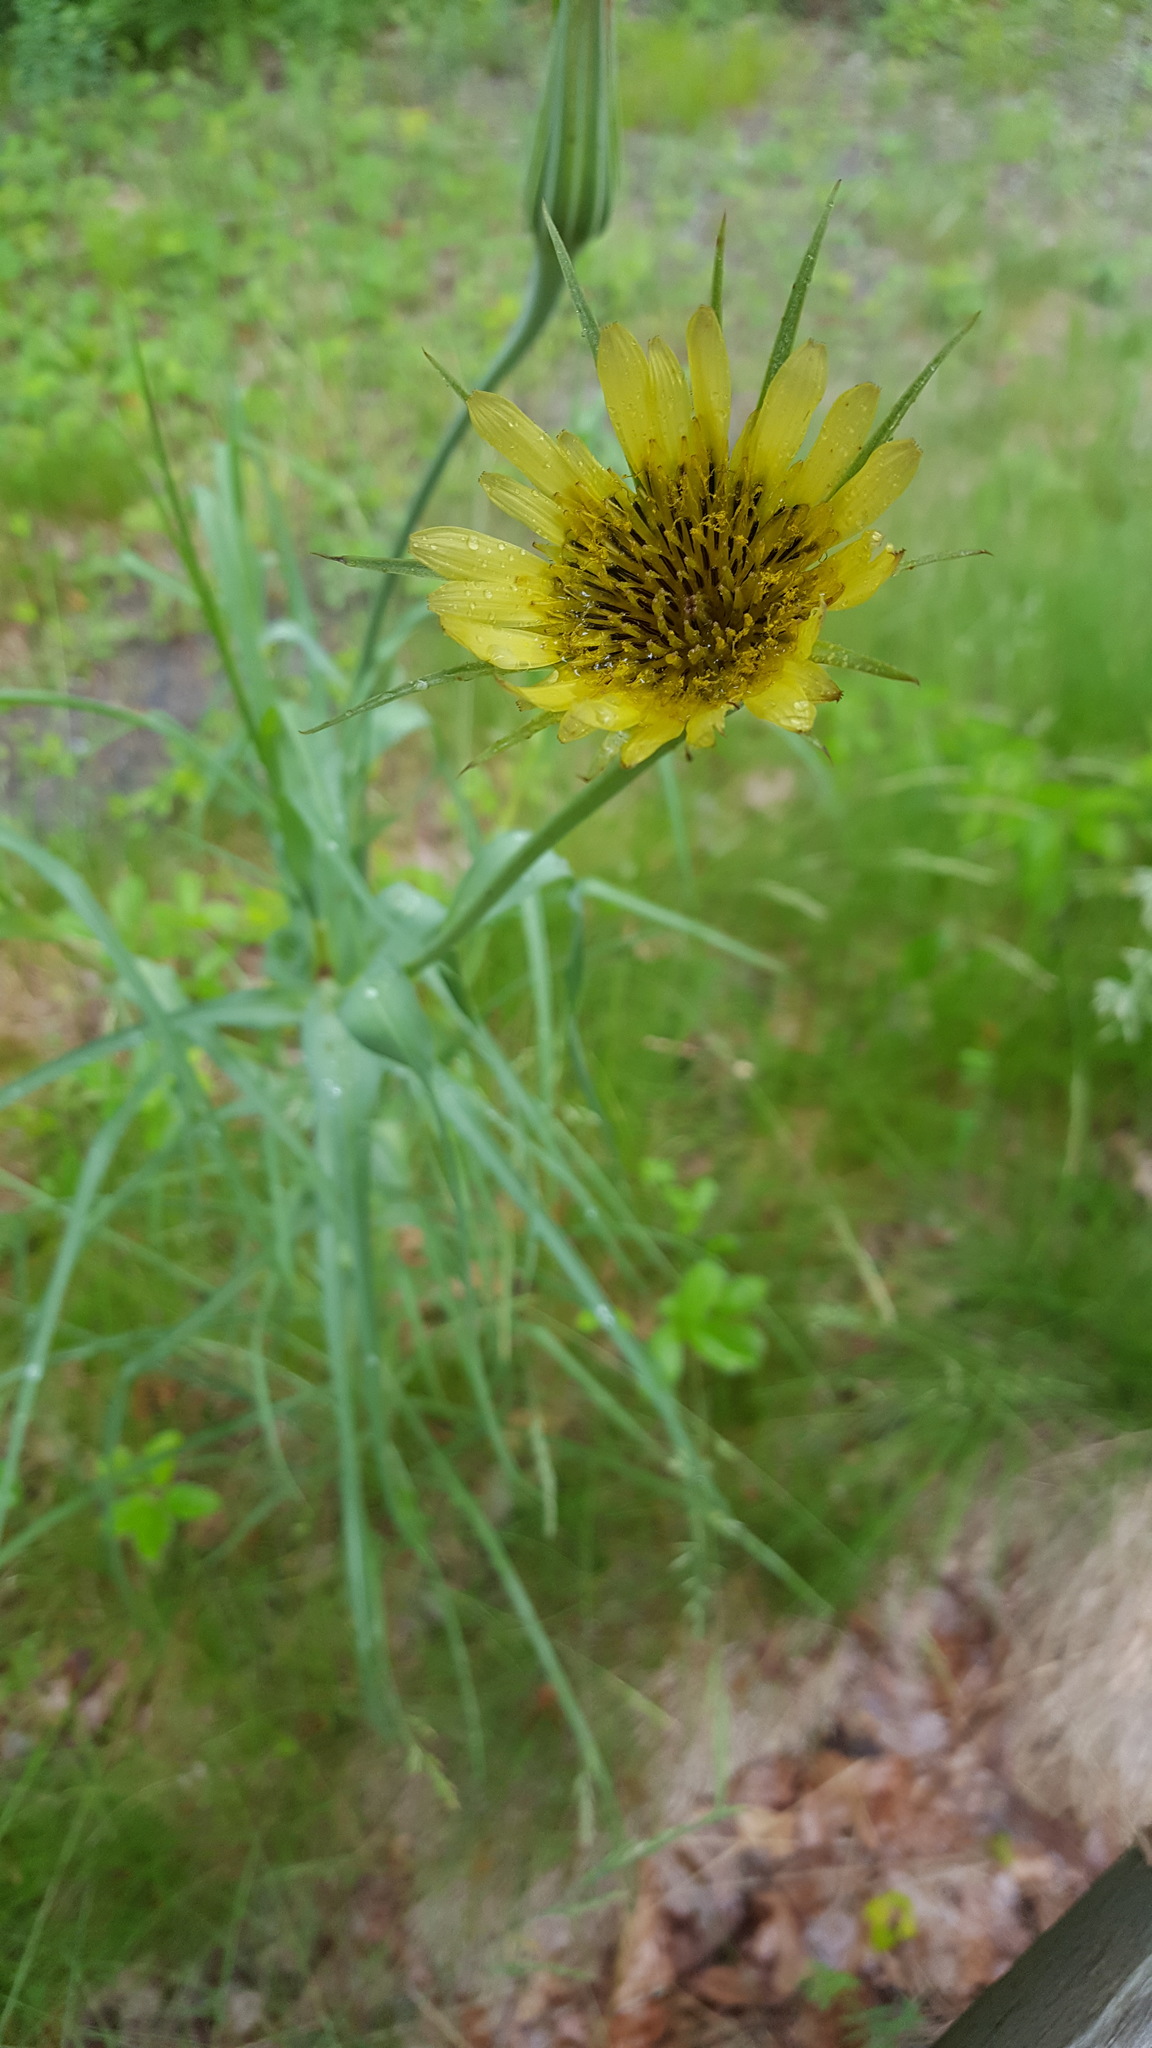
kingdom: Plantae
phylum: Tracheophyta
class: Magnoliopsida
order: Asterales
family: Asteraceae
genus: Tragopogon
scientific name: Tragopogon dubius
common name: Yellow salsify
